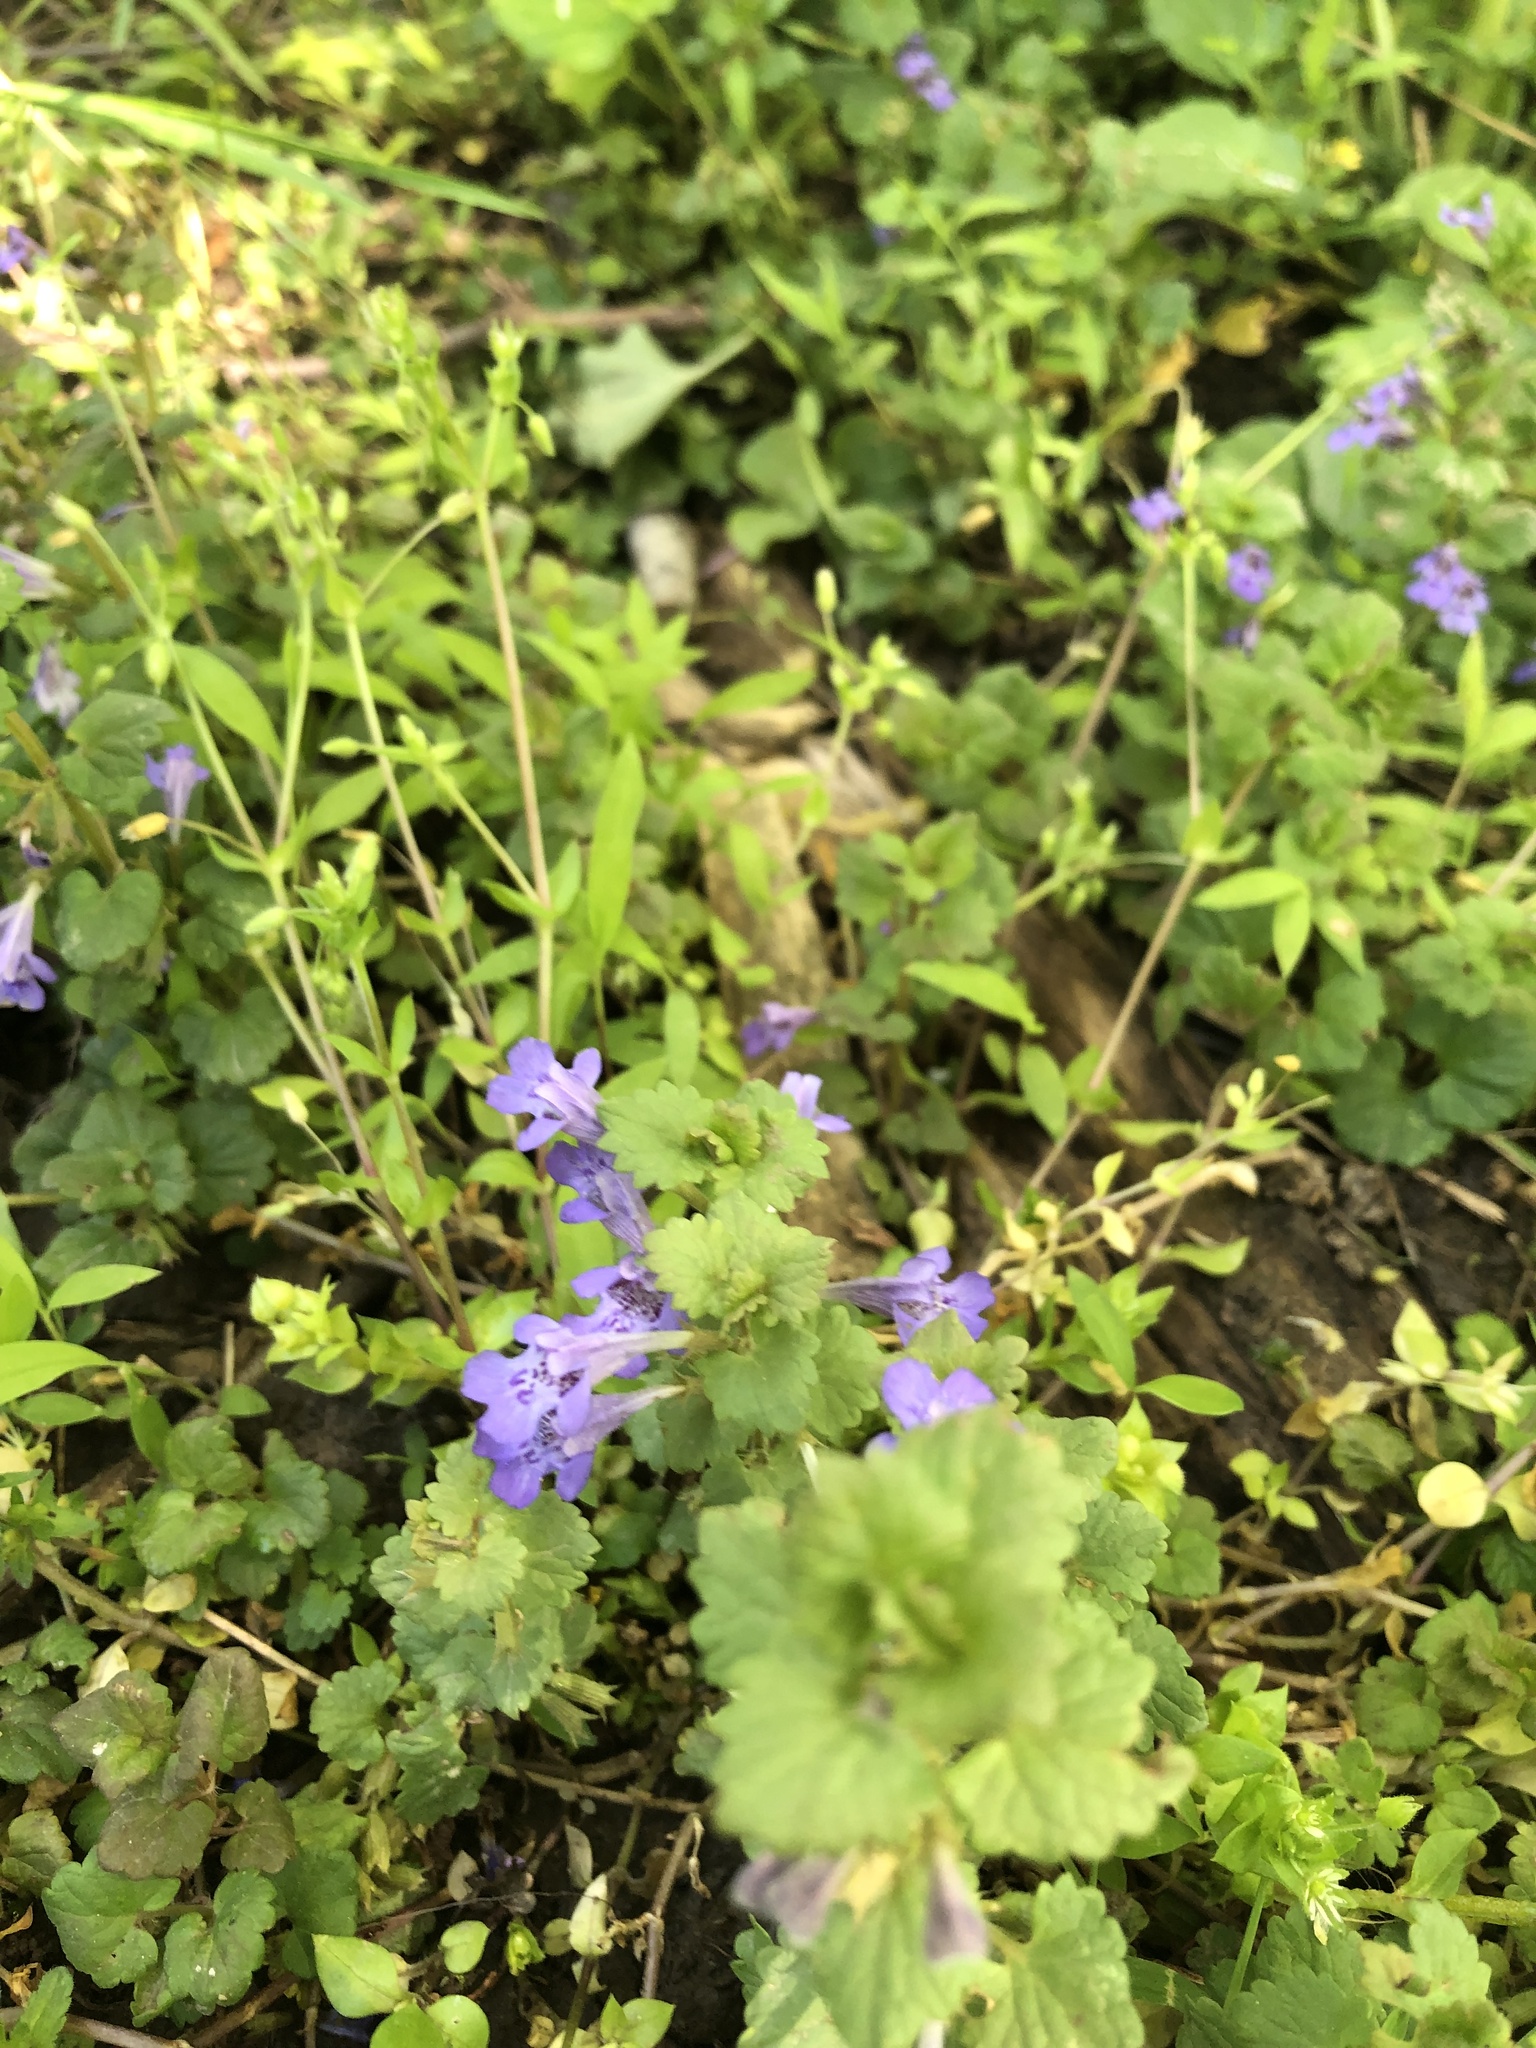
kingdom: Plantae
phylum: Tracheophyta
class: Magnoliopsida
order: Lamiales
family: Lamiaceae
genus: Glechoma
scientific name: Glechoma hederacea
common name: Ground ivy
